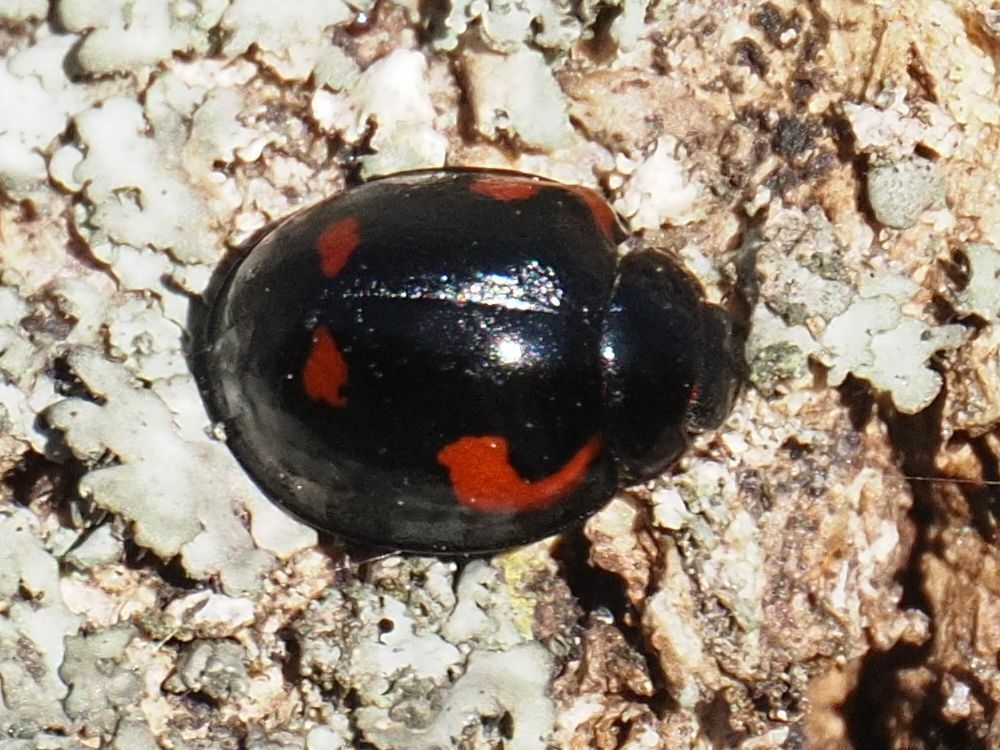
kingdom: Animalia
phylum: Arthropoda
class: Insecta
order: Coleoptera
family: Coccinellidae
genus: Brumus
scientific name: Brumus quadripustulatus
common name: Ladybird beetle
